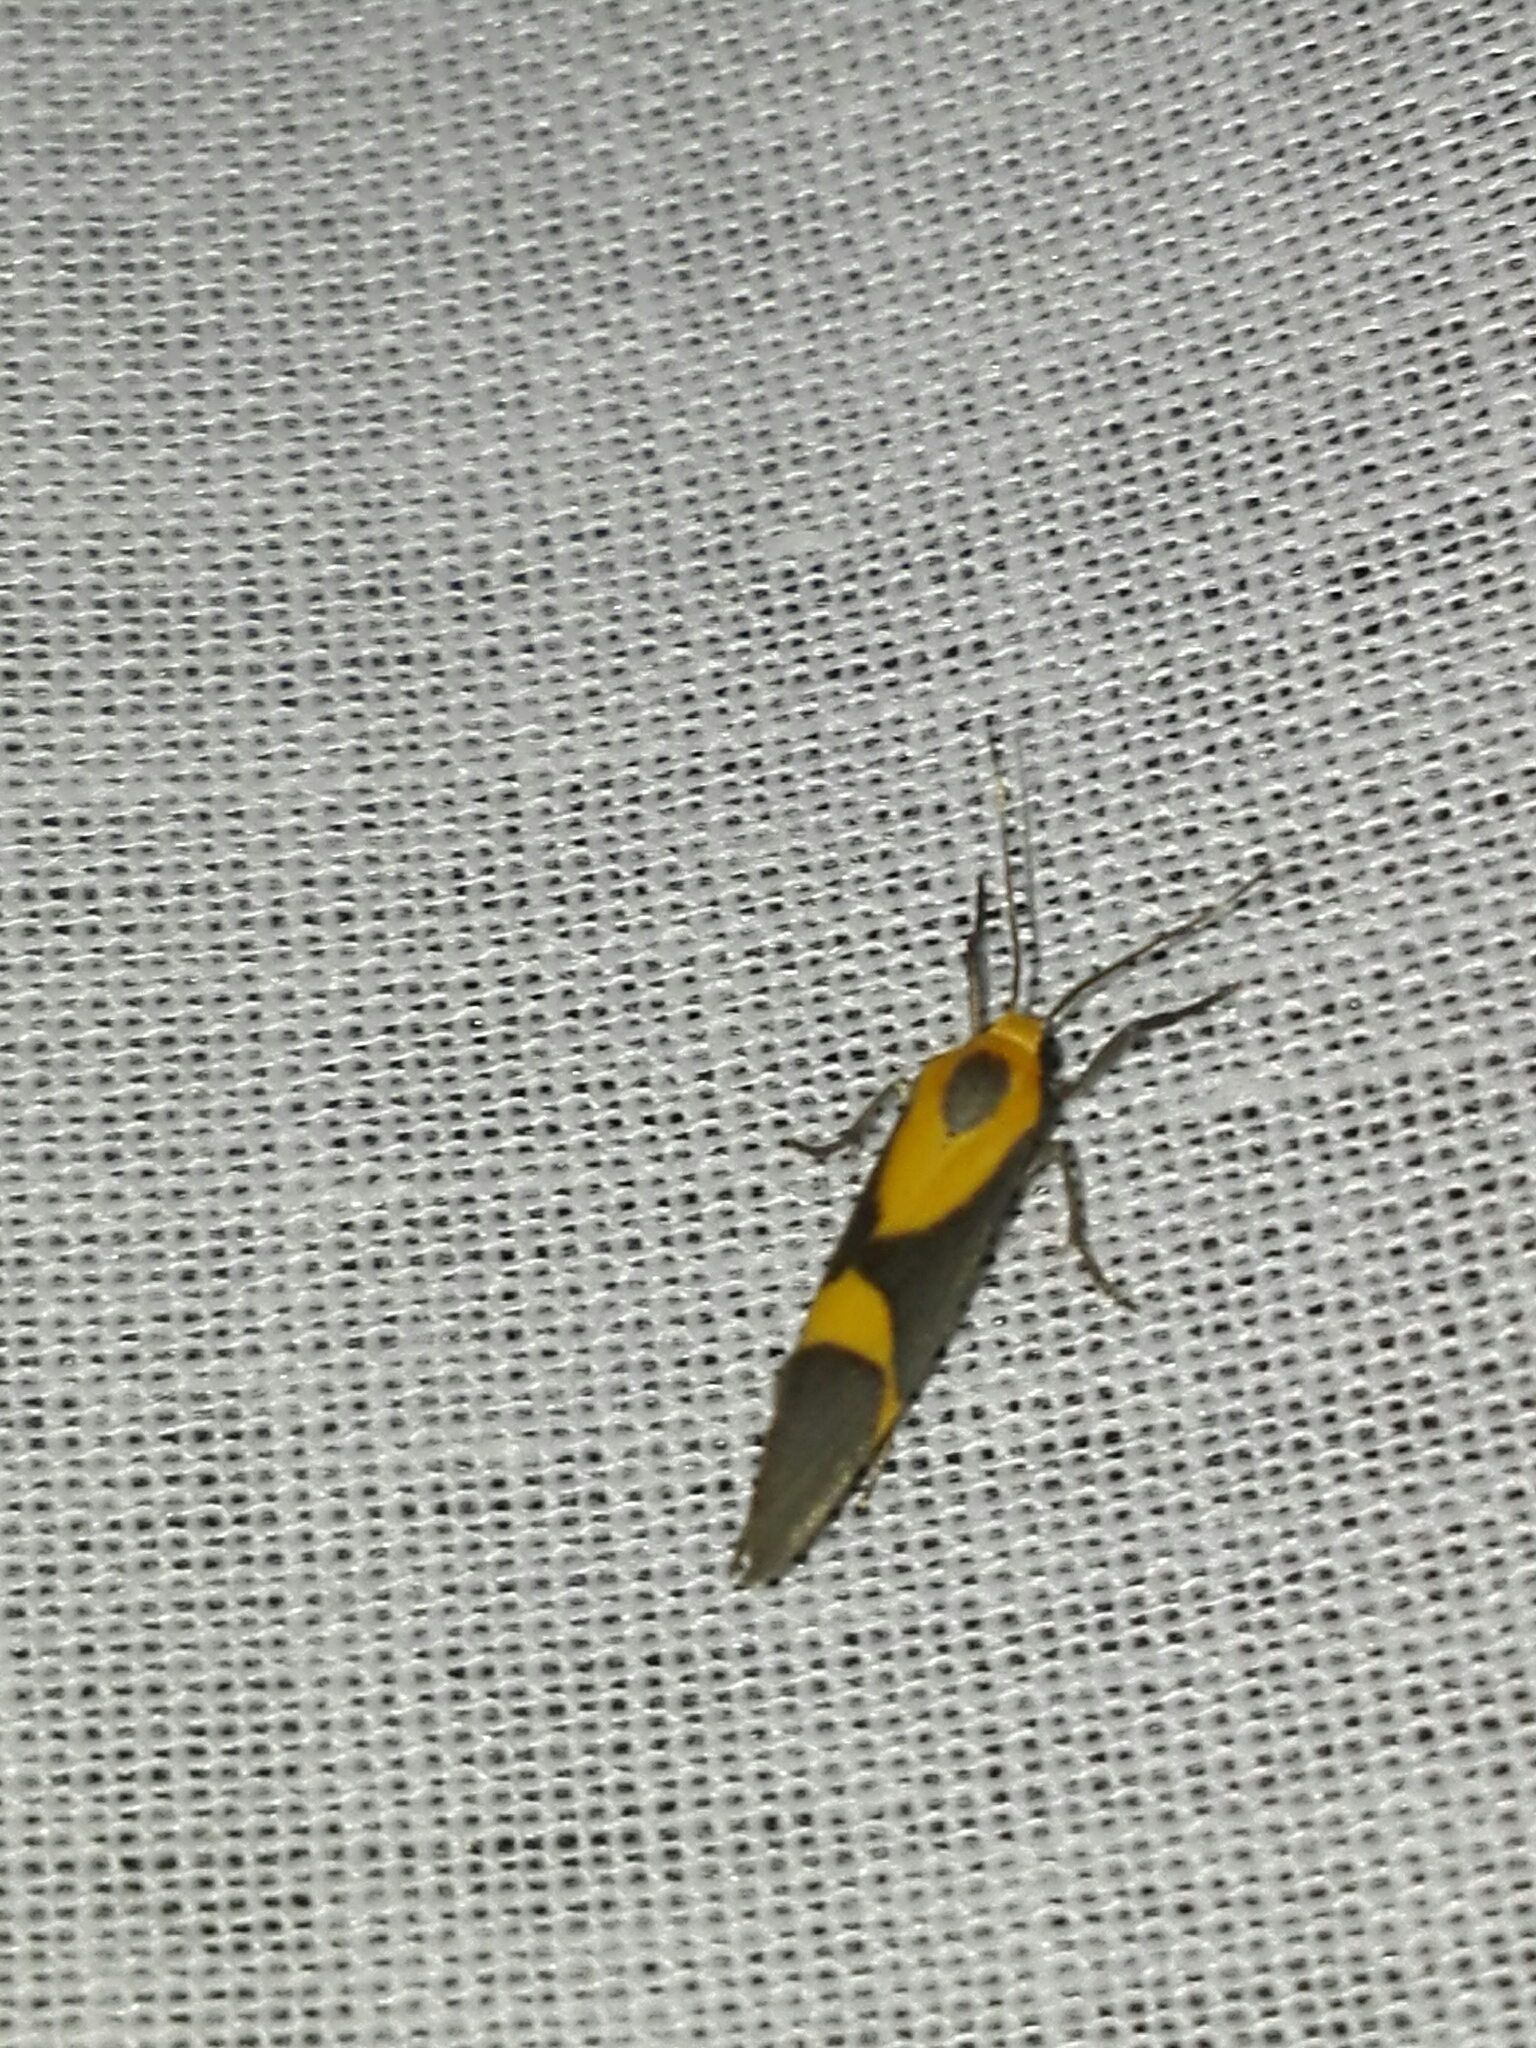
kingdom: Animalia
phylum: Arthropoda
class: Insecta
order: Lepidoptera
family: Erebidae
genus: Cisthene
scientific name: Cisthene tenuifascia
